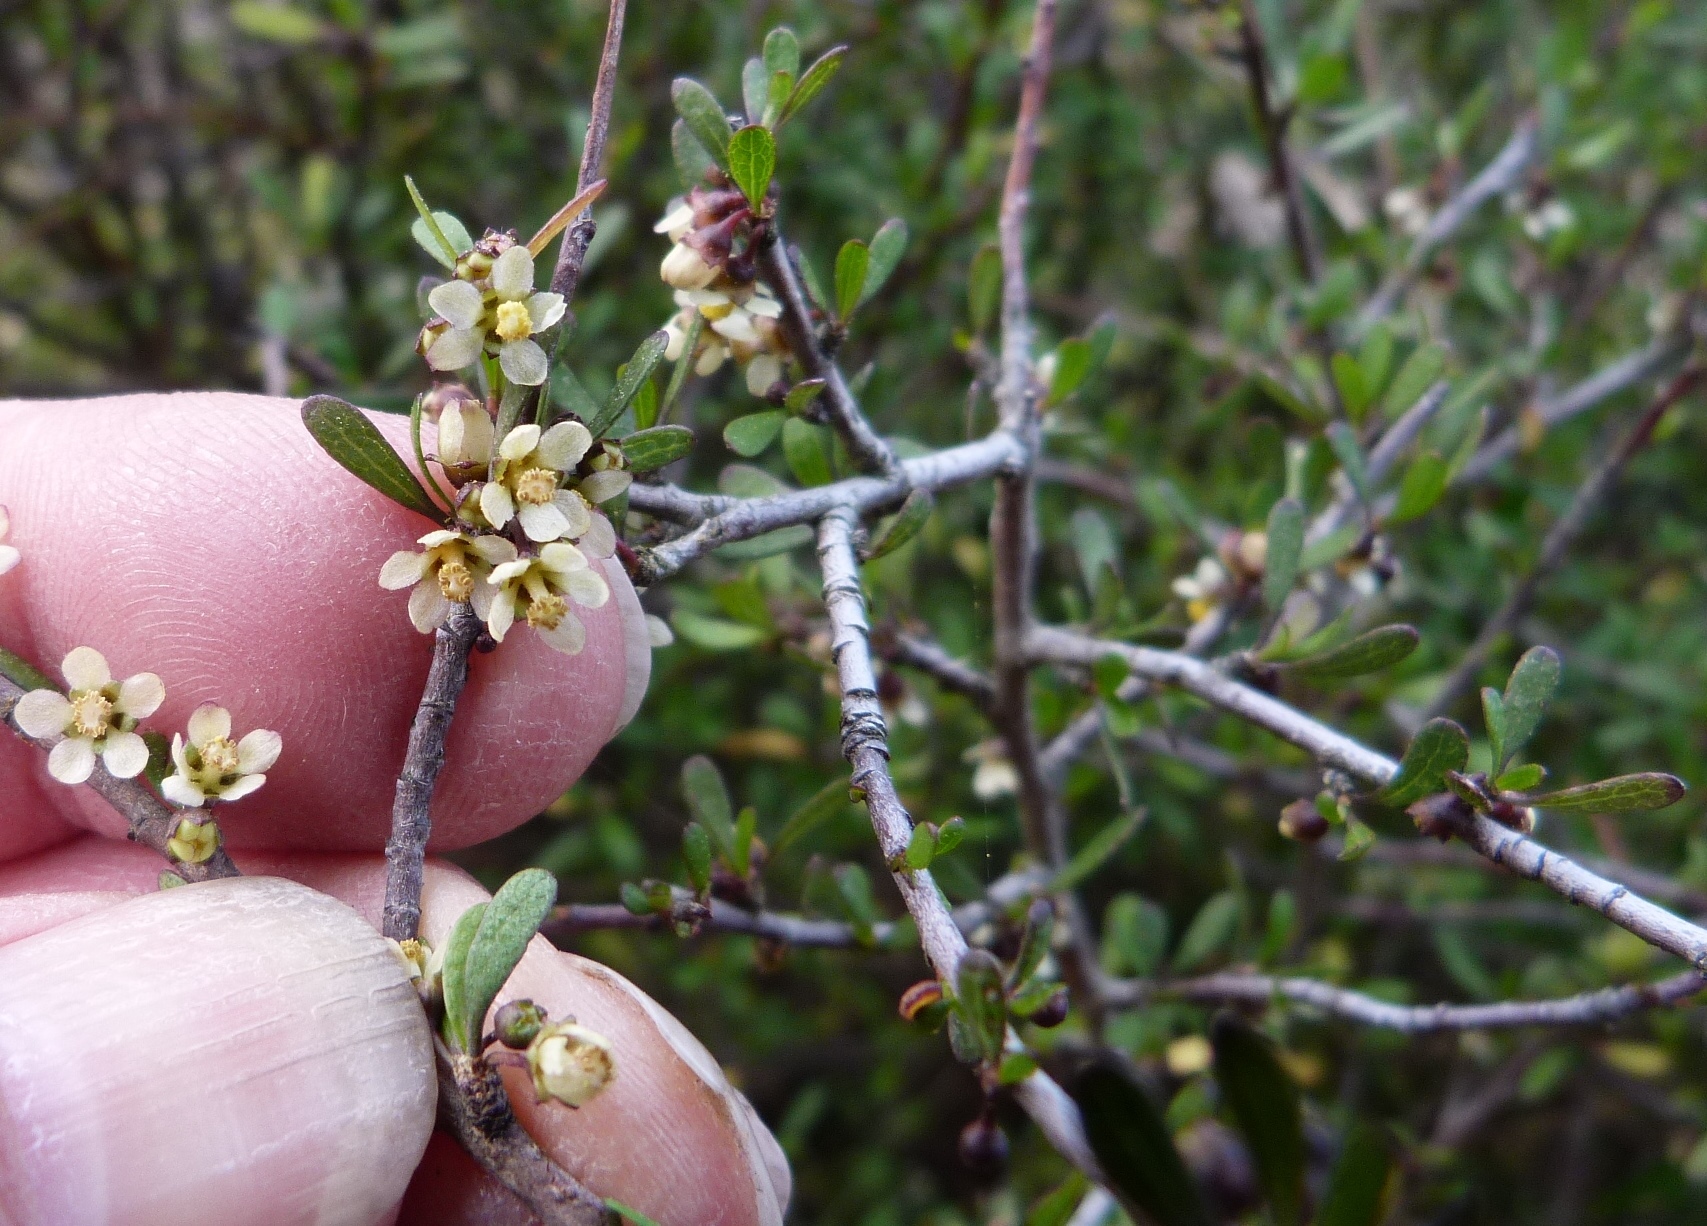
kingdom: Plantae
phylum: Tracheophyta
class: Magnoliopsida
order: Malvales
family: Malvaceae
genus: Plagianthus
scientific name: Plagianthus divaricatus
